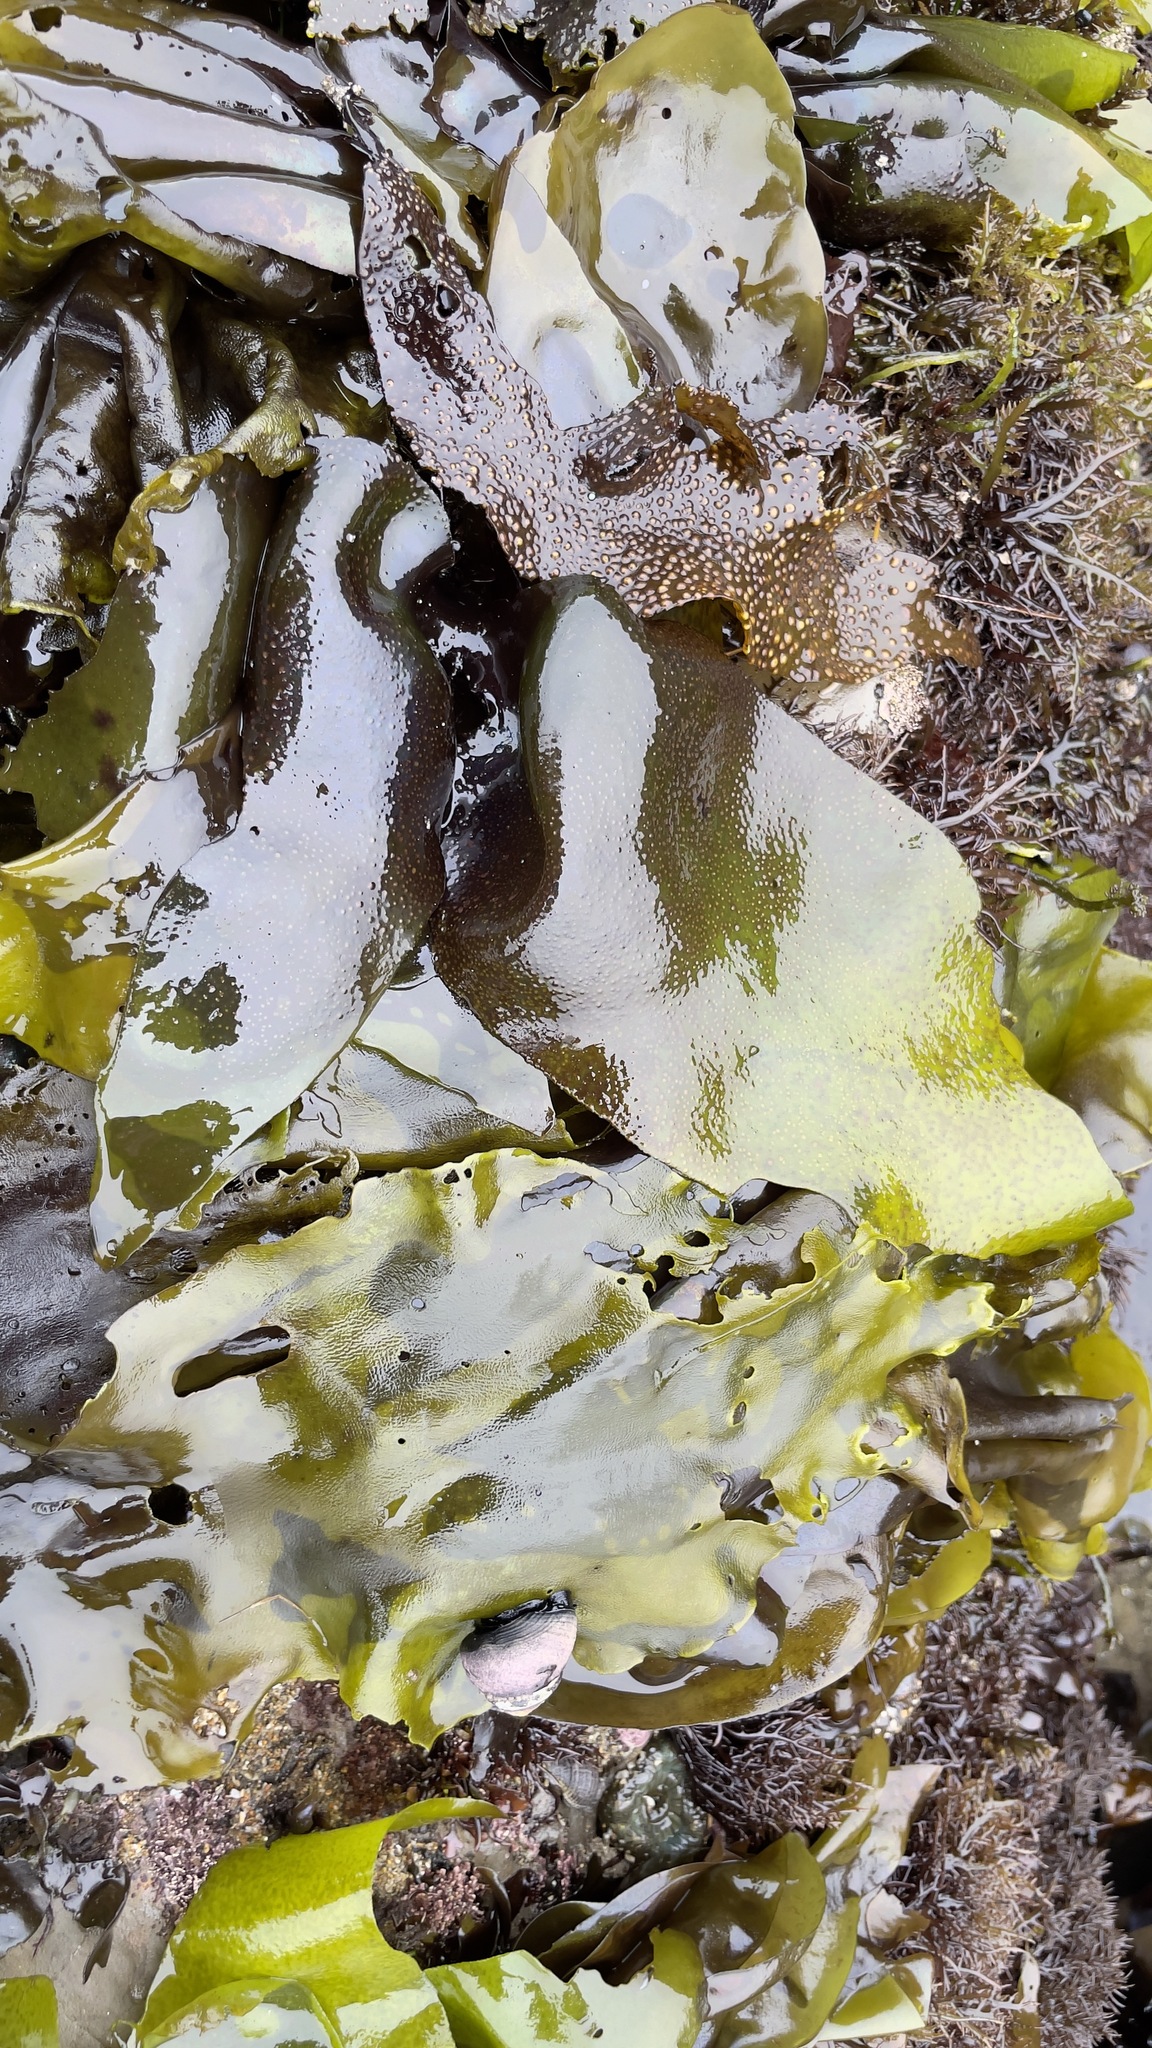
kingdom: Plantae
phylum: Rhodophyta
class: Florideophyceae
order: Gigartinales
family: Gigartinaceae
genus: Mazzaella
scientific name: Mazzaella flaccida
